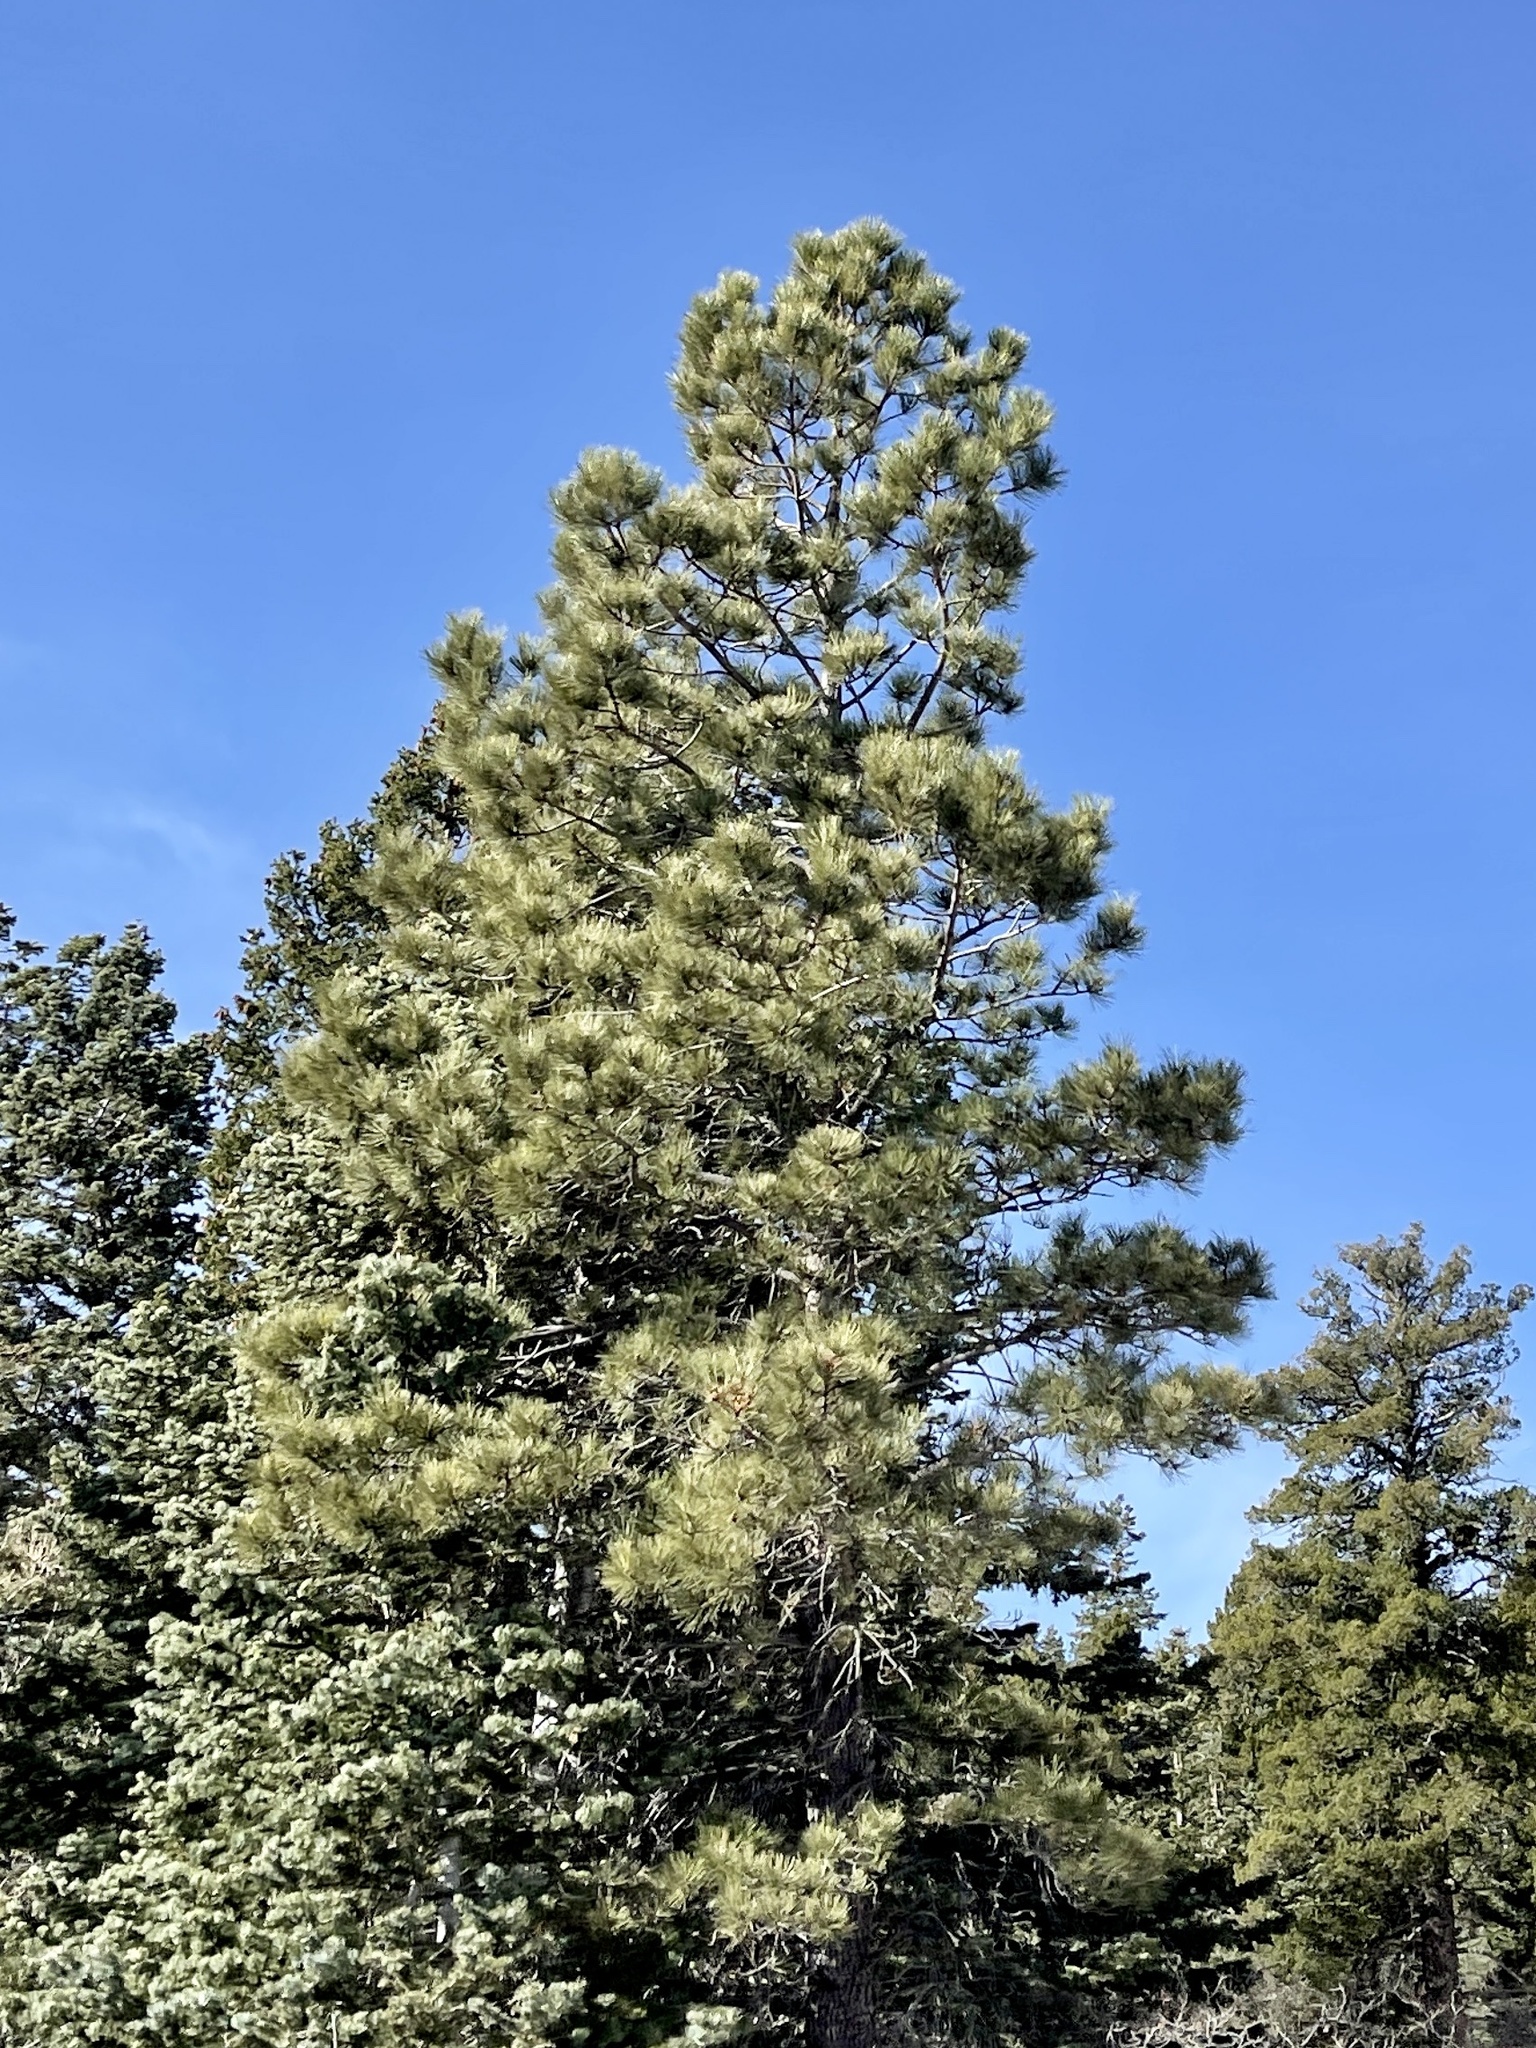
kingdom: Plantae
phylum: Tracheophyta
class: Pinopsida
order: Pinales
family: Pinaceae
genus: Pinus
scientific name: Pinus ponderosa
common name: Western yellow-pine
